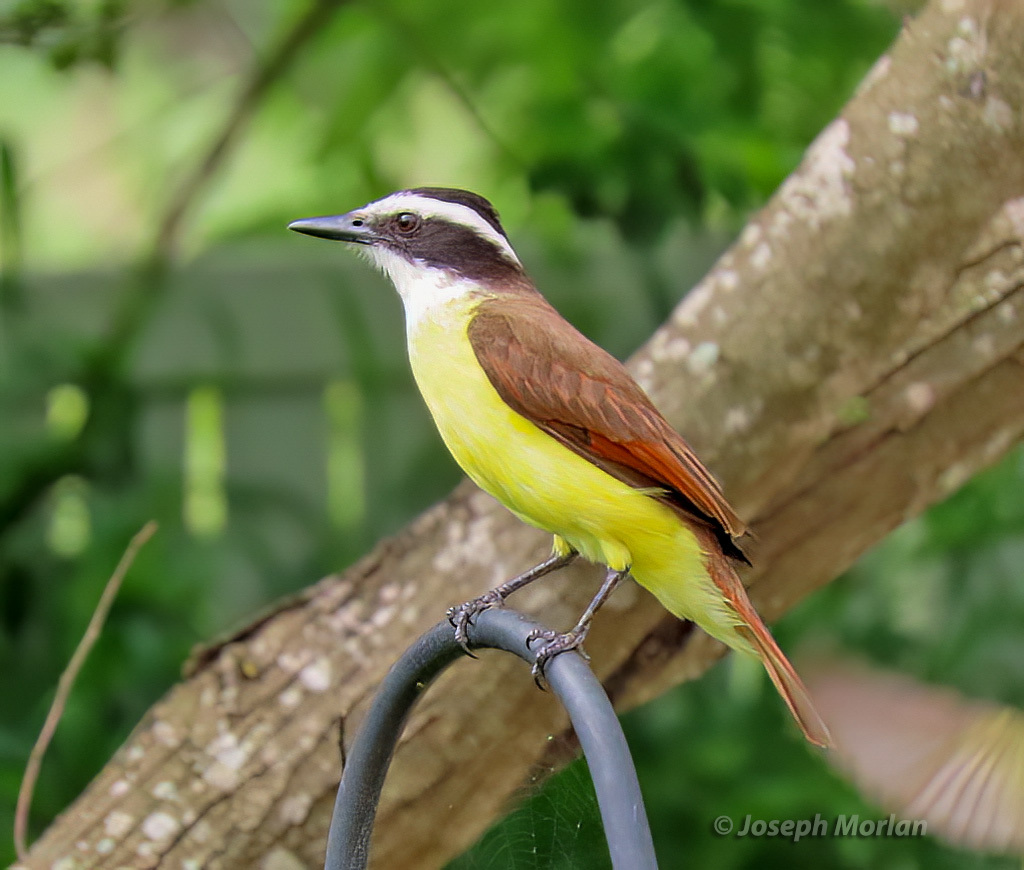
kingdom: Animalia
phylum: Chordata
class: Aves
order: Passeriformes
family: Tyrannidae
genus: Pitangus
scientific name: Pitangus sulphuratus
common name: Great kiskadee
